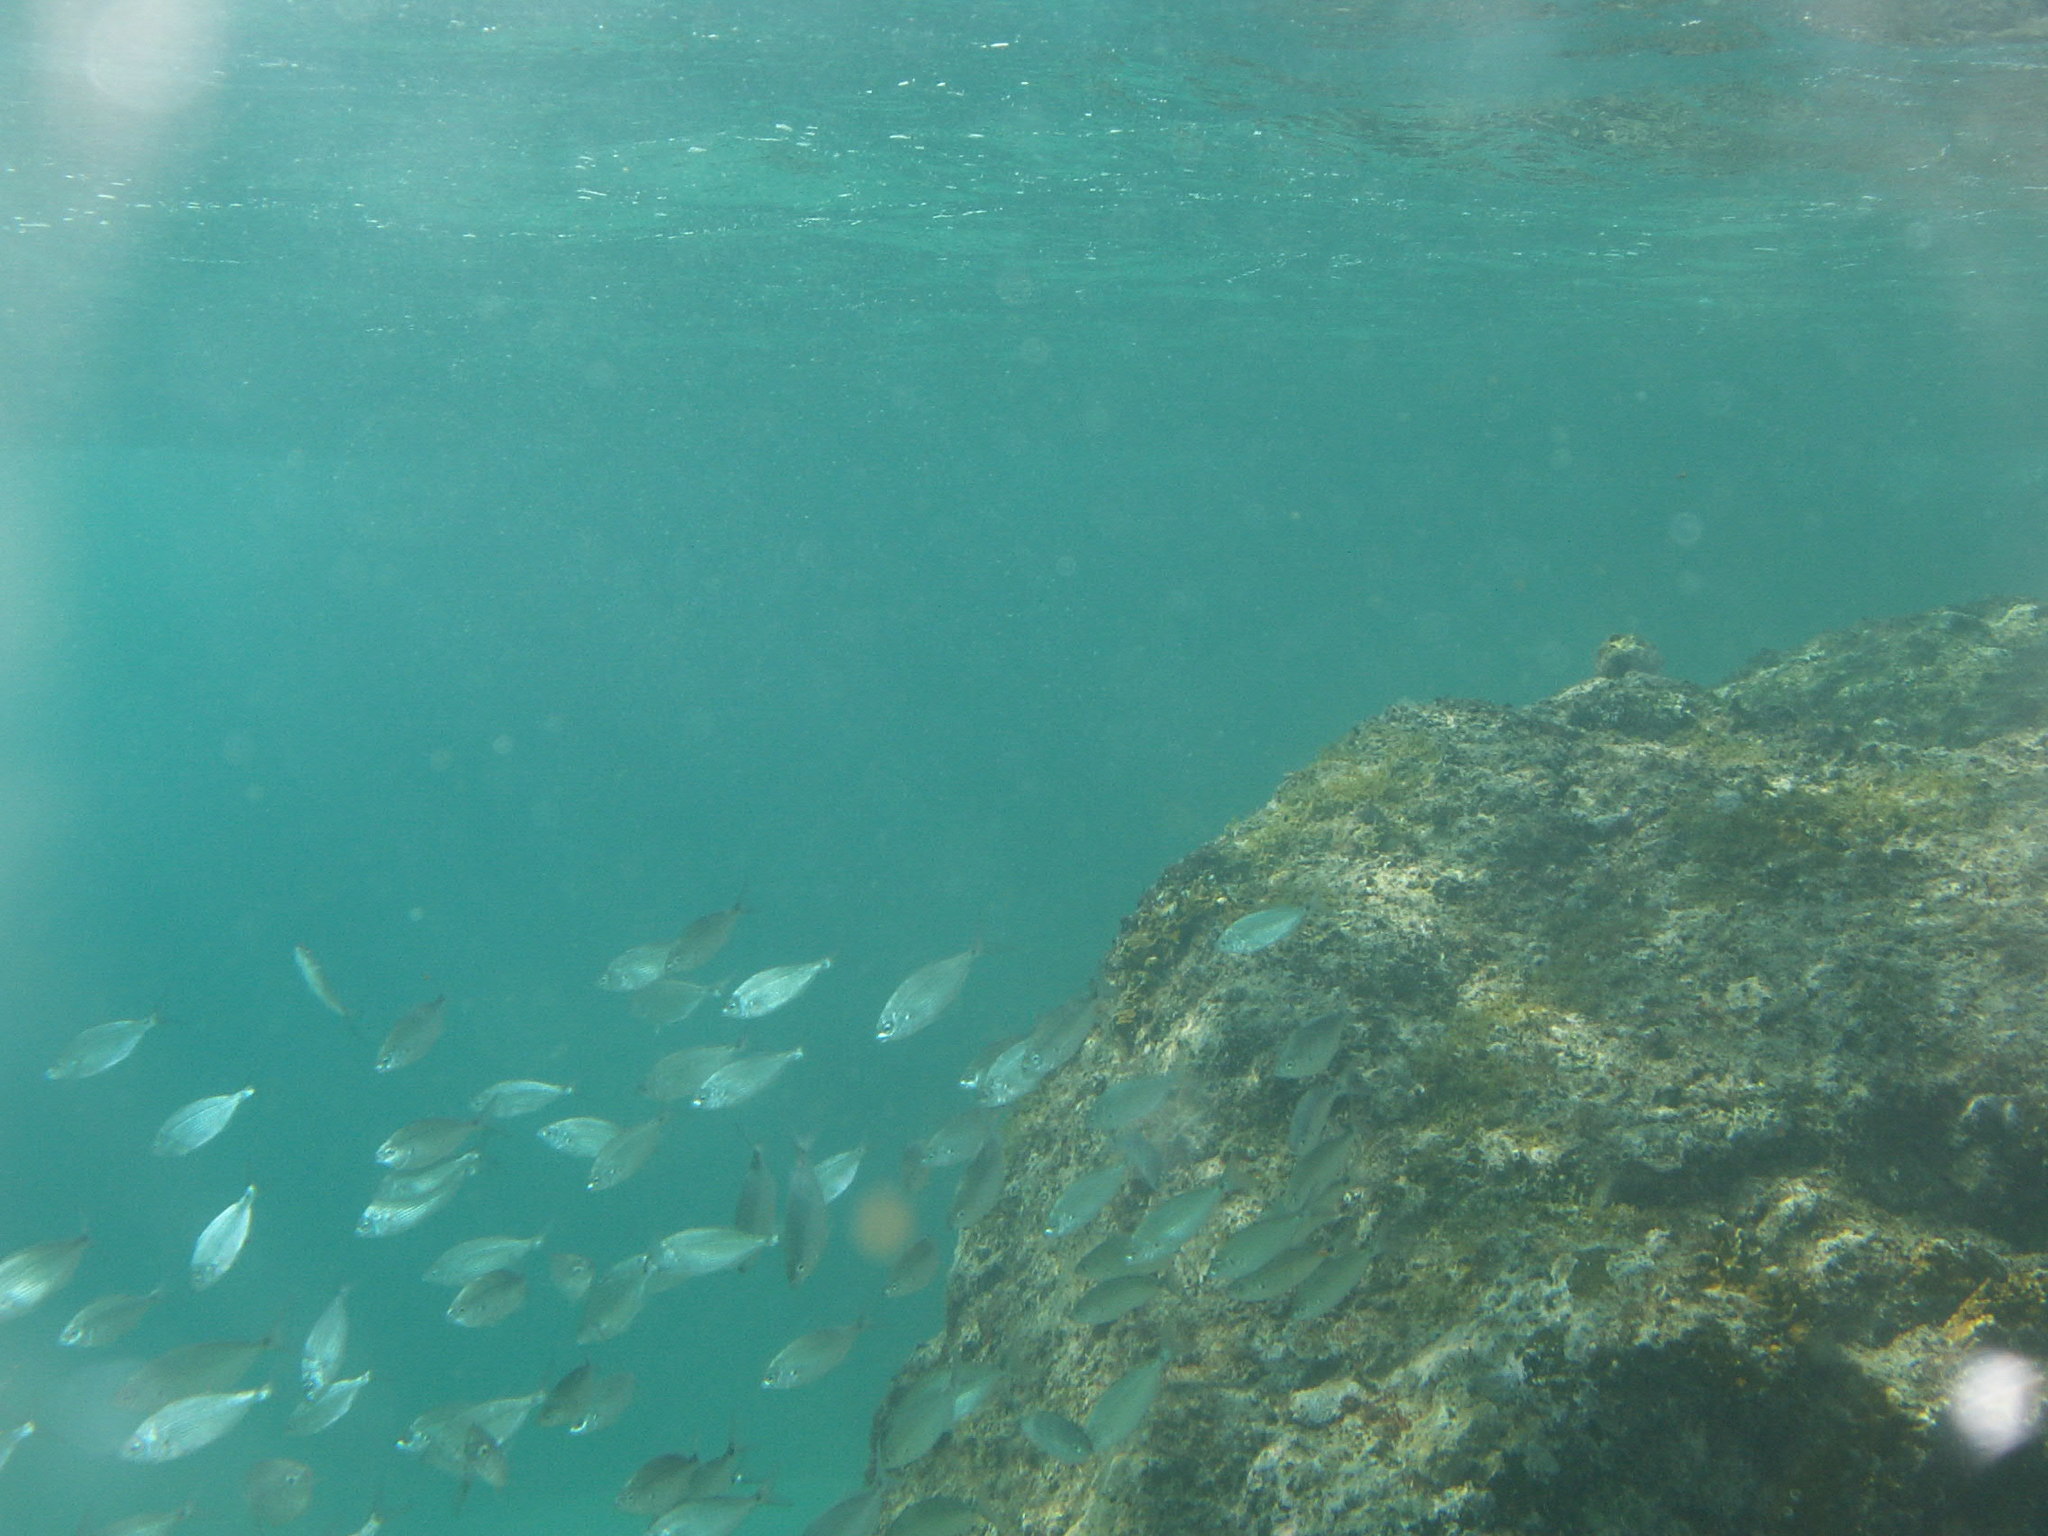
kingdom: Animalia
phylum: Chordata
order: Perciformes
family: Sparidae
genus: Spicara
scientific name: Spicara melanurus
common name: Blackspot picarel
